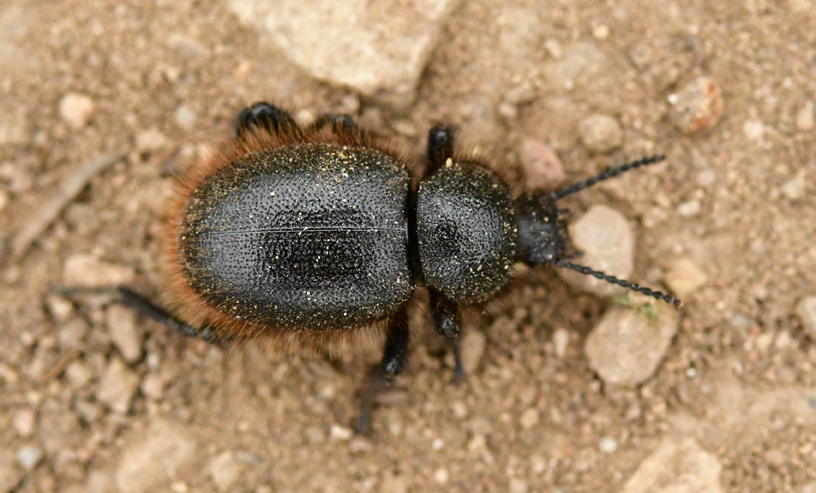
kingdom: Animalia
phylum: Arthropoda
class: Insecta
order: Coleoptera
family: Tenebrionidae
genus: Eleodes
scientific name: Eleodes osculans
